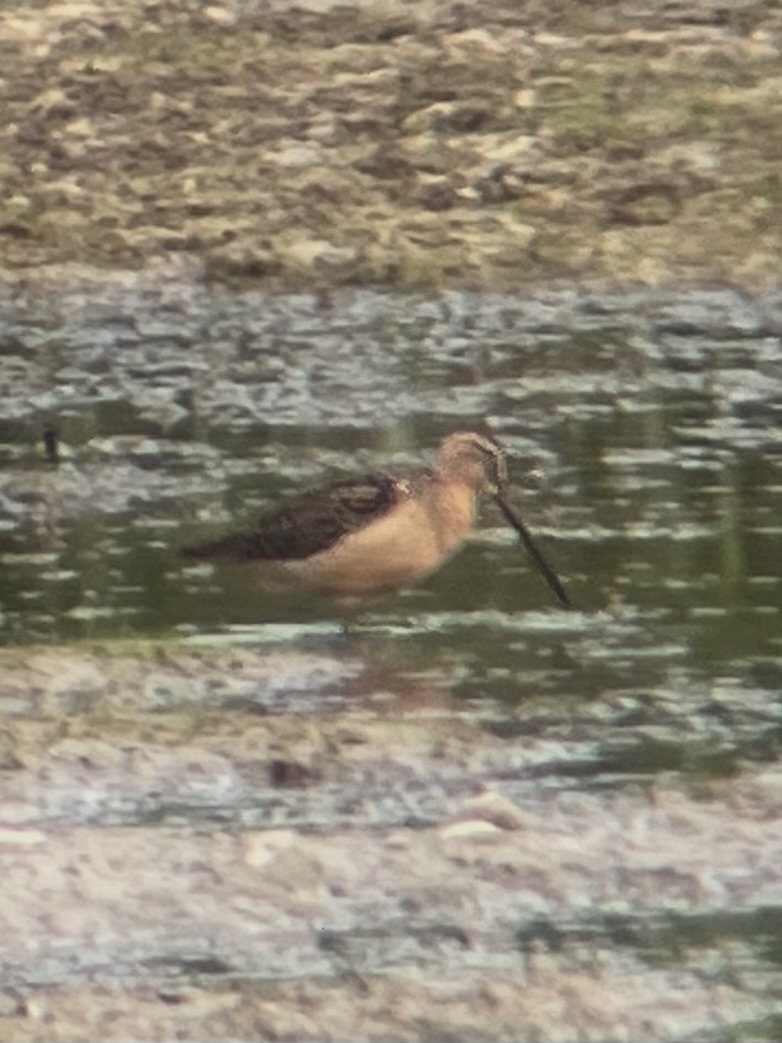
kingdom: Animalia
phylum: Chordata
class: Aves
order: Charadriiformes
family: Scolopacidae
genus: Limnodromus
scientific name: Limnodromus scolopaceus
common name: Long-billed dowitcher
